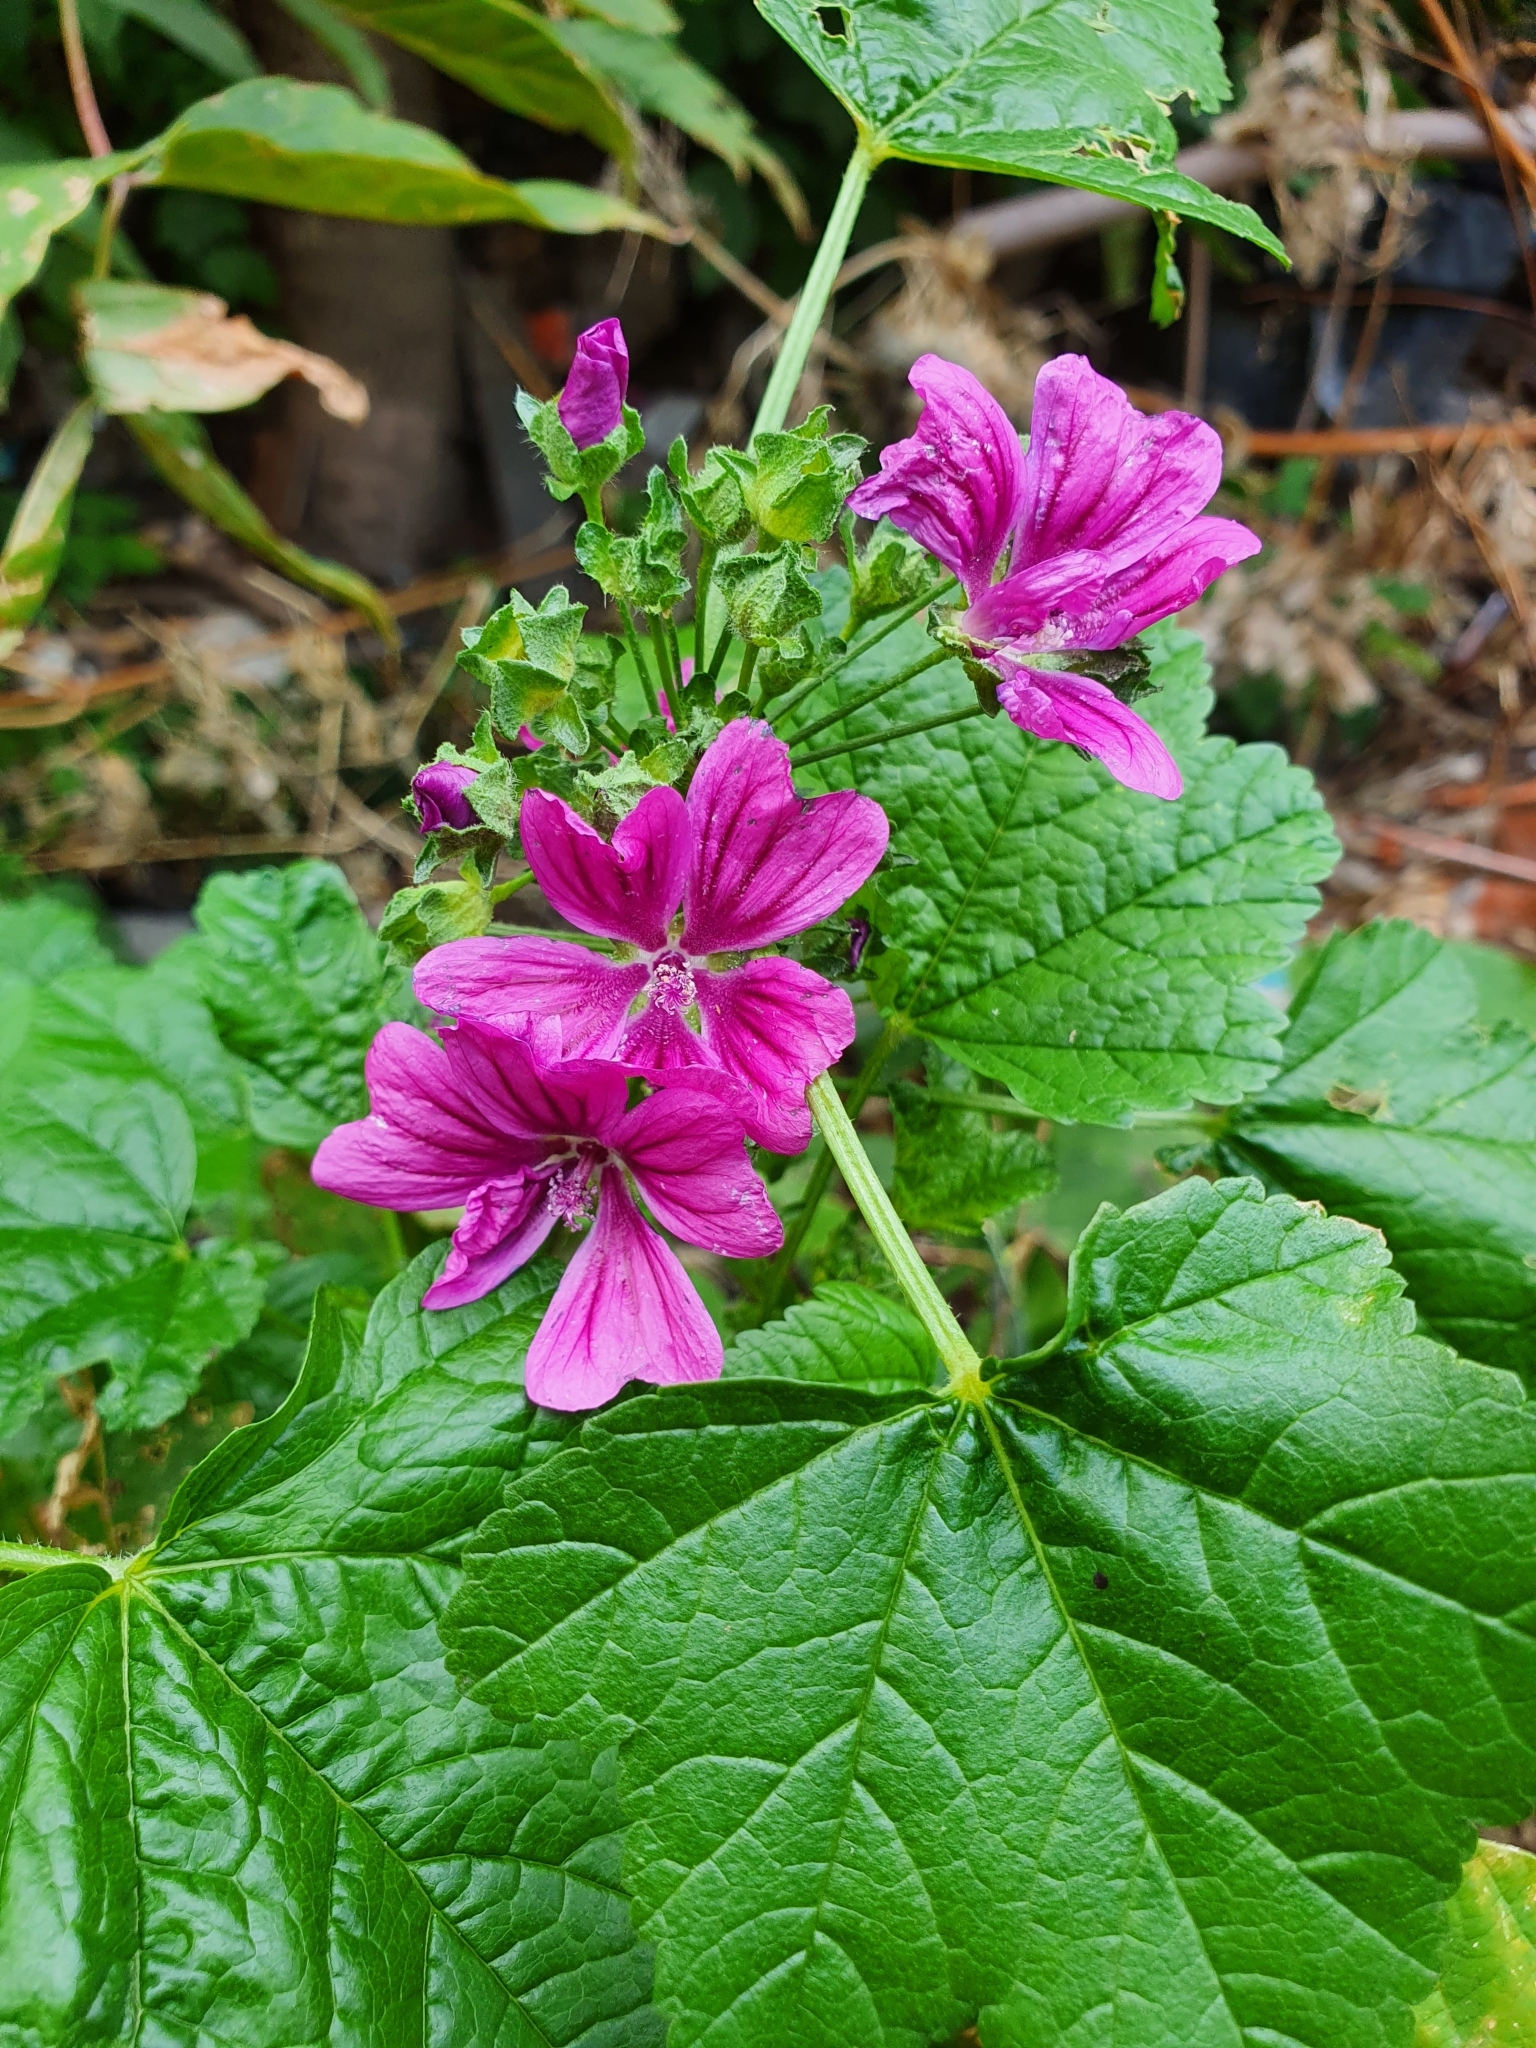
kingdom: Plantae
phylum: Tracheophyta
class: Magnoliopsida
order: Malvales
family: Malvaceae
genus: Malva
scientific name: Malva sylvestris
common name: Common mallow
